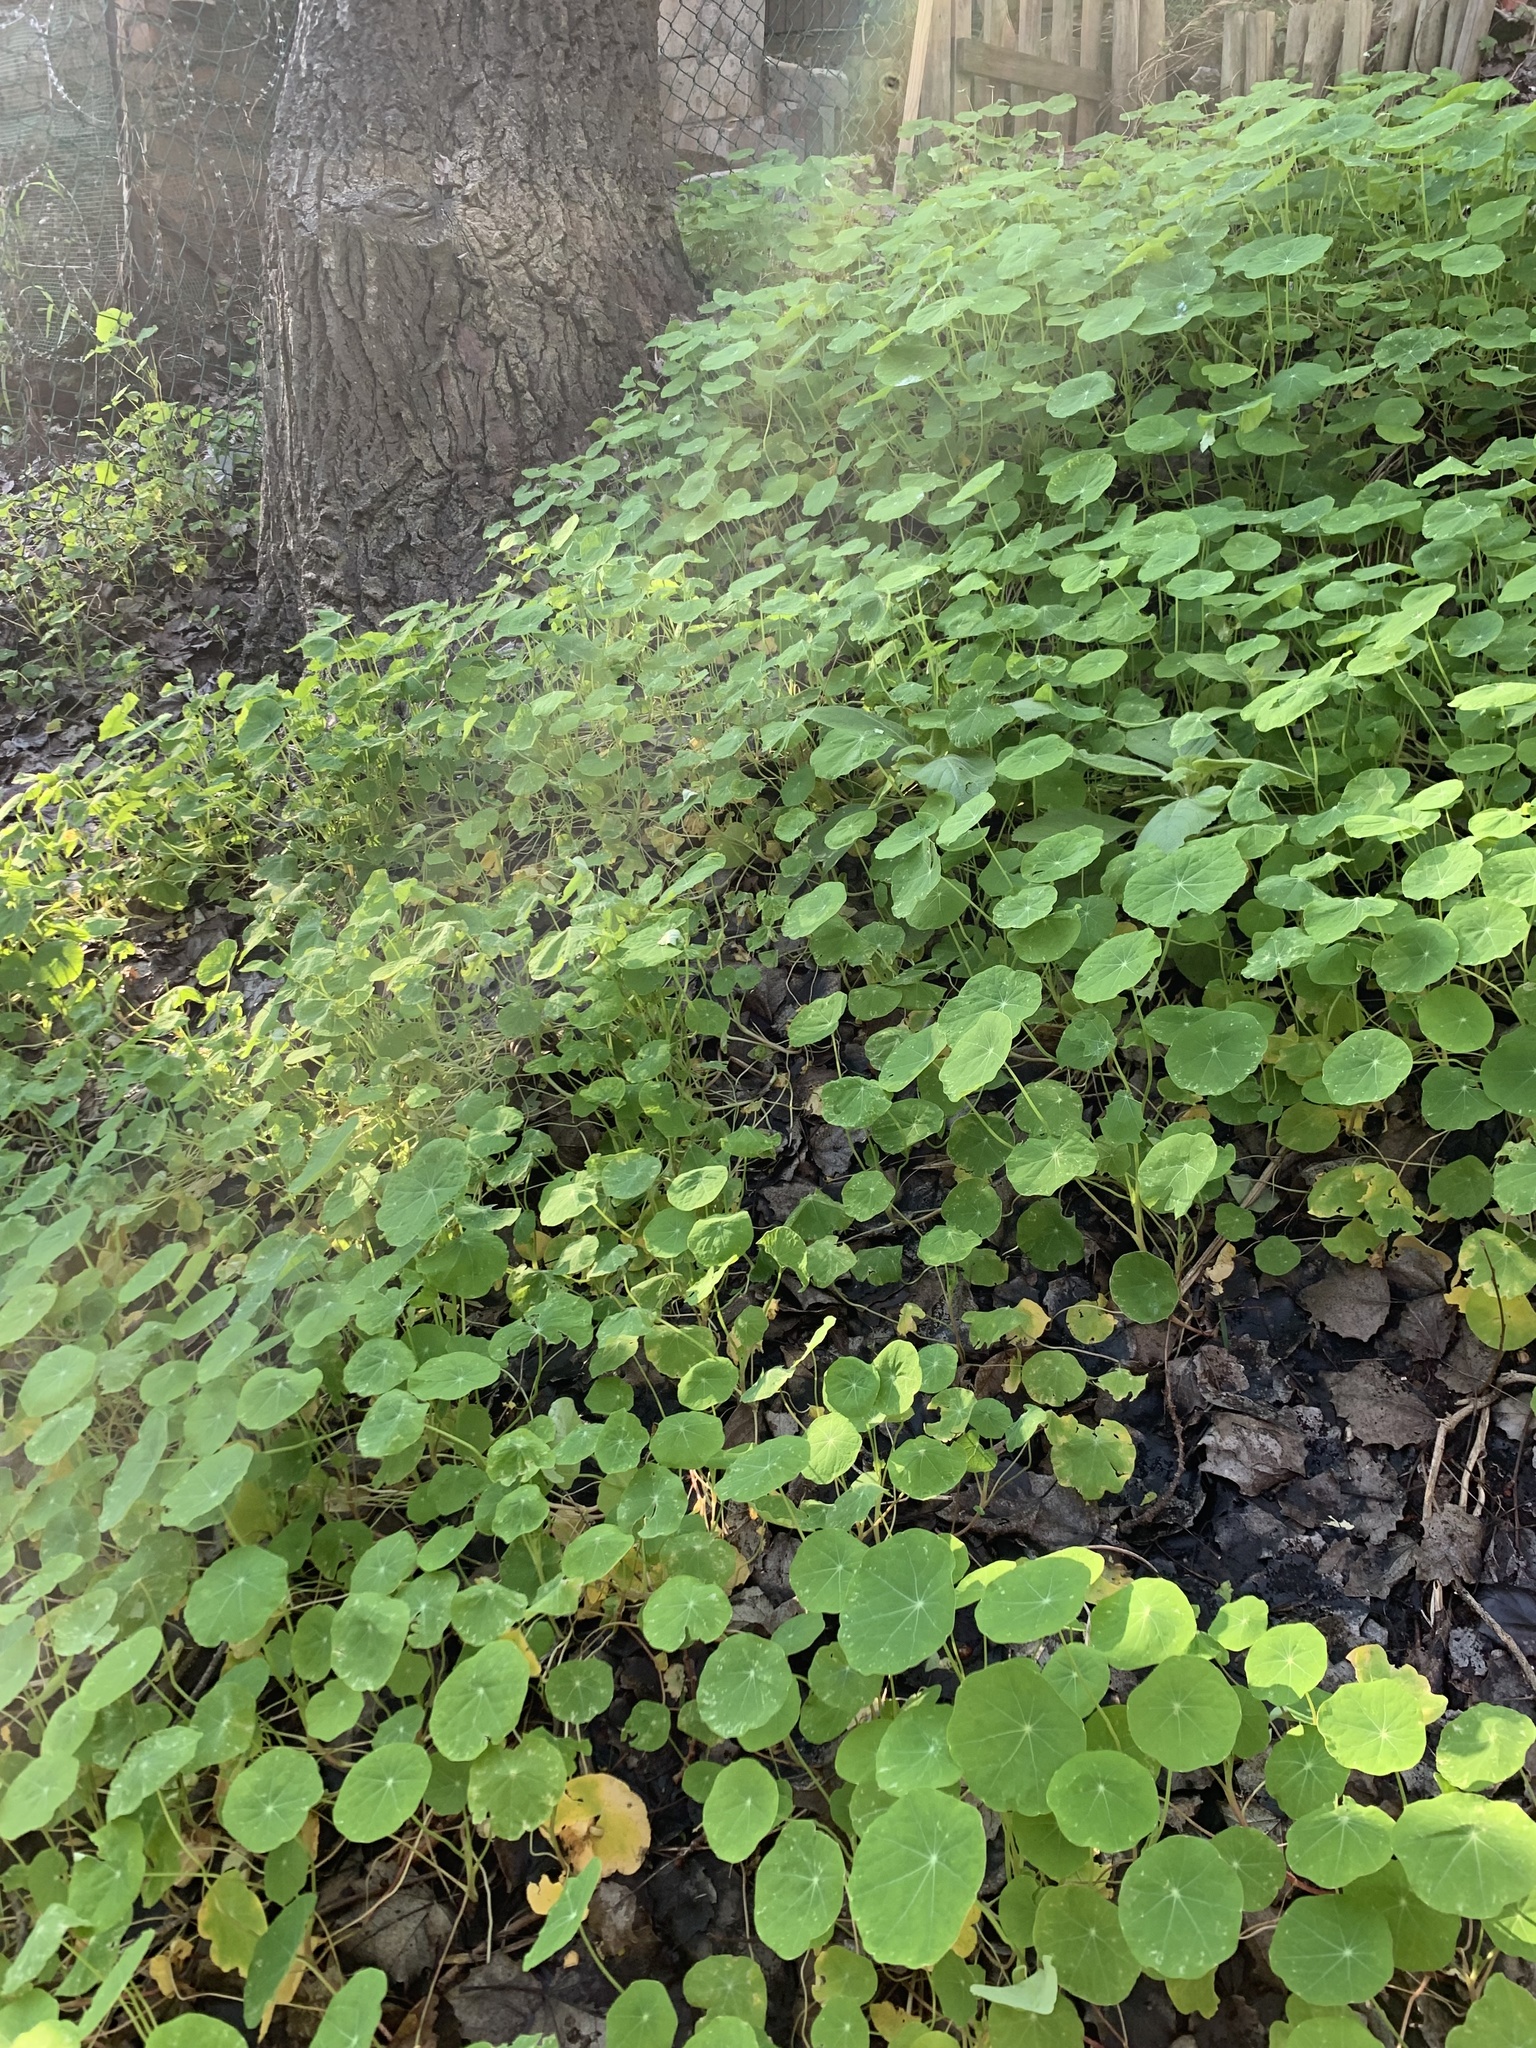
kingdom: Plantae
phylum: Tracheophyta
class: Magnoliopsida
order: Brassicales
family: Tropaeolaceae
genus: Tropaeolum
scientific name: Tropaeolum majus
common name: Nasturtium
